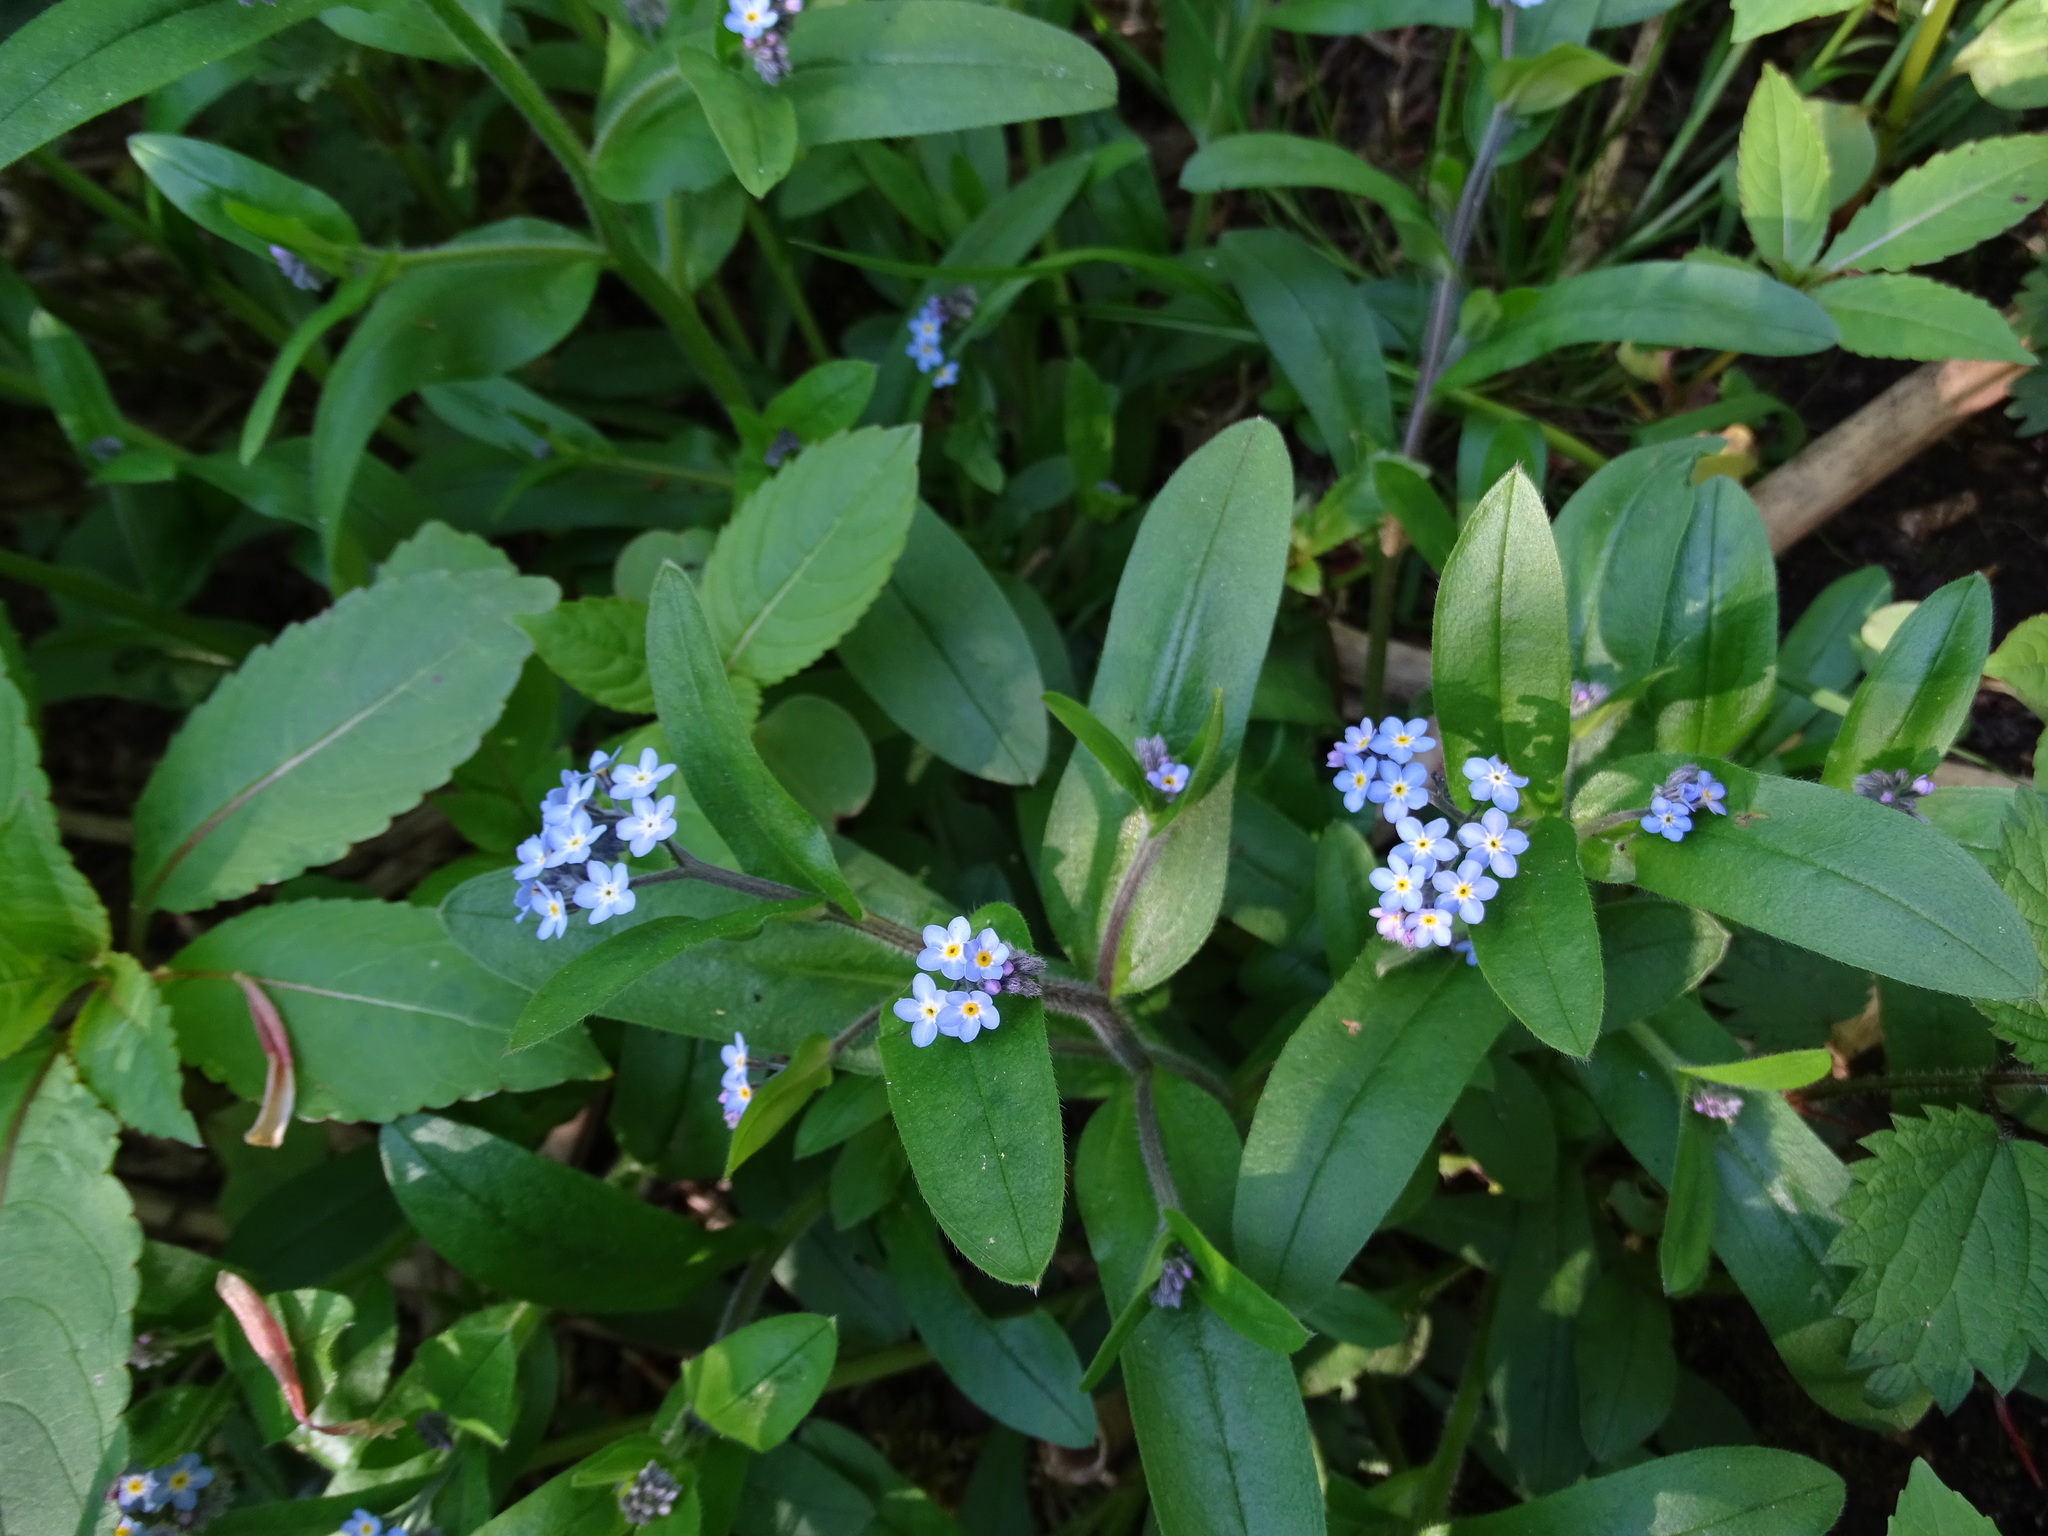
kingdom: Plantae
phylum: Tracheophyta
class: Magnoliopsida
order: Boraginales
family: Boraginaceae
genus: Myosotis
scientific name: Myosotis sylvatica
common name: Wood forget-me-not
